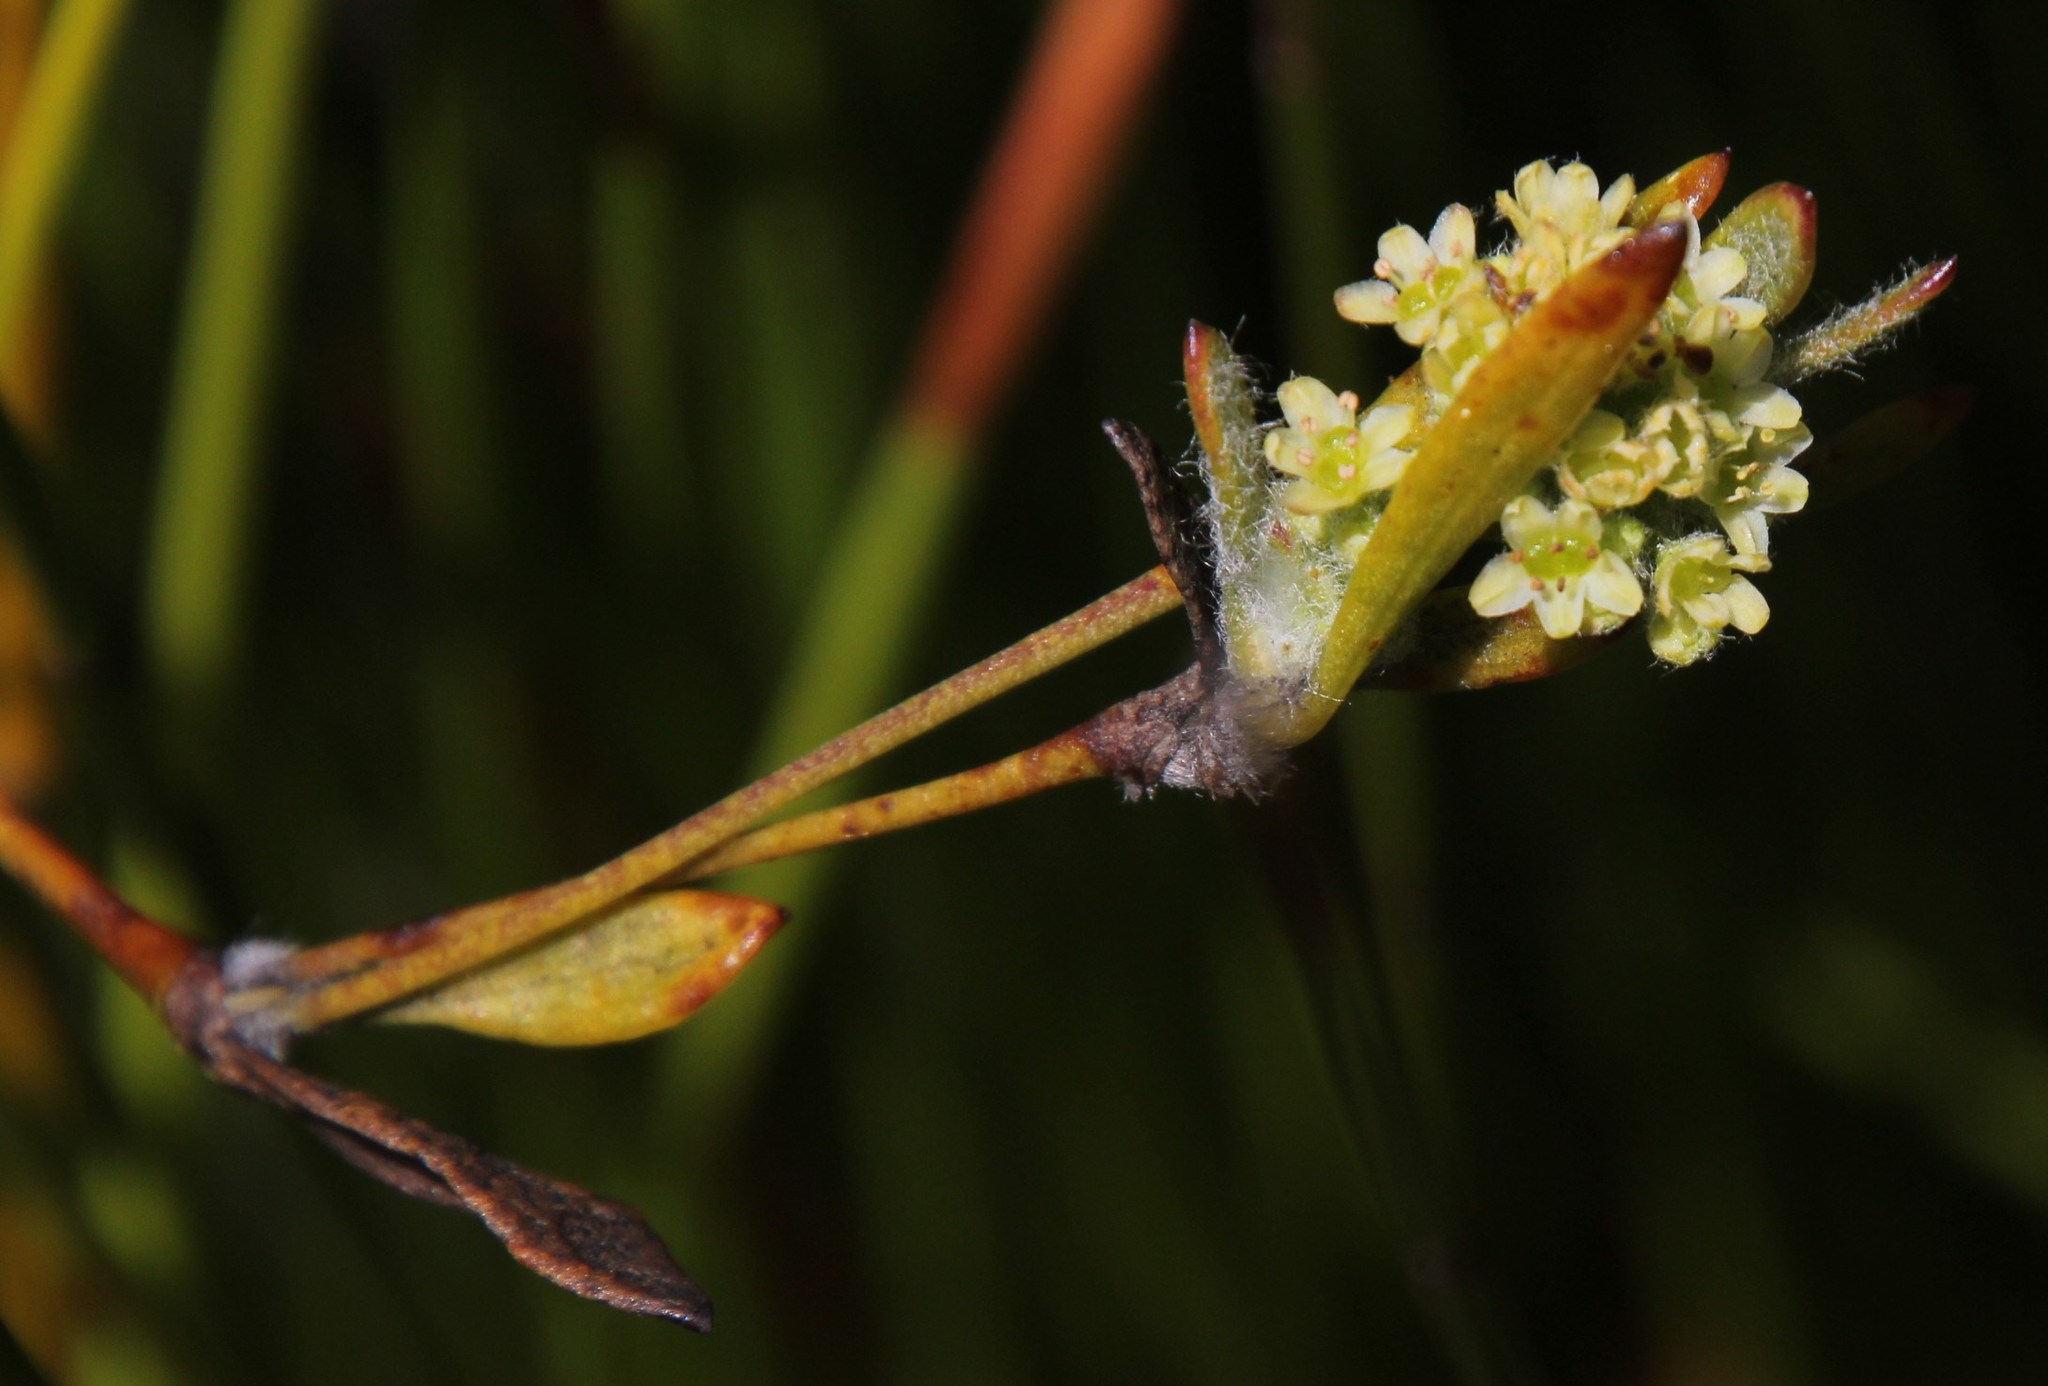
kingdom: Plantae
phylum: Tracheophyta
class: Magnoliopsida
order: Apiales
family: Apiaceae
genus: Centella
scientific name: Centella difformis
